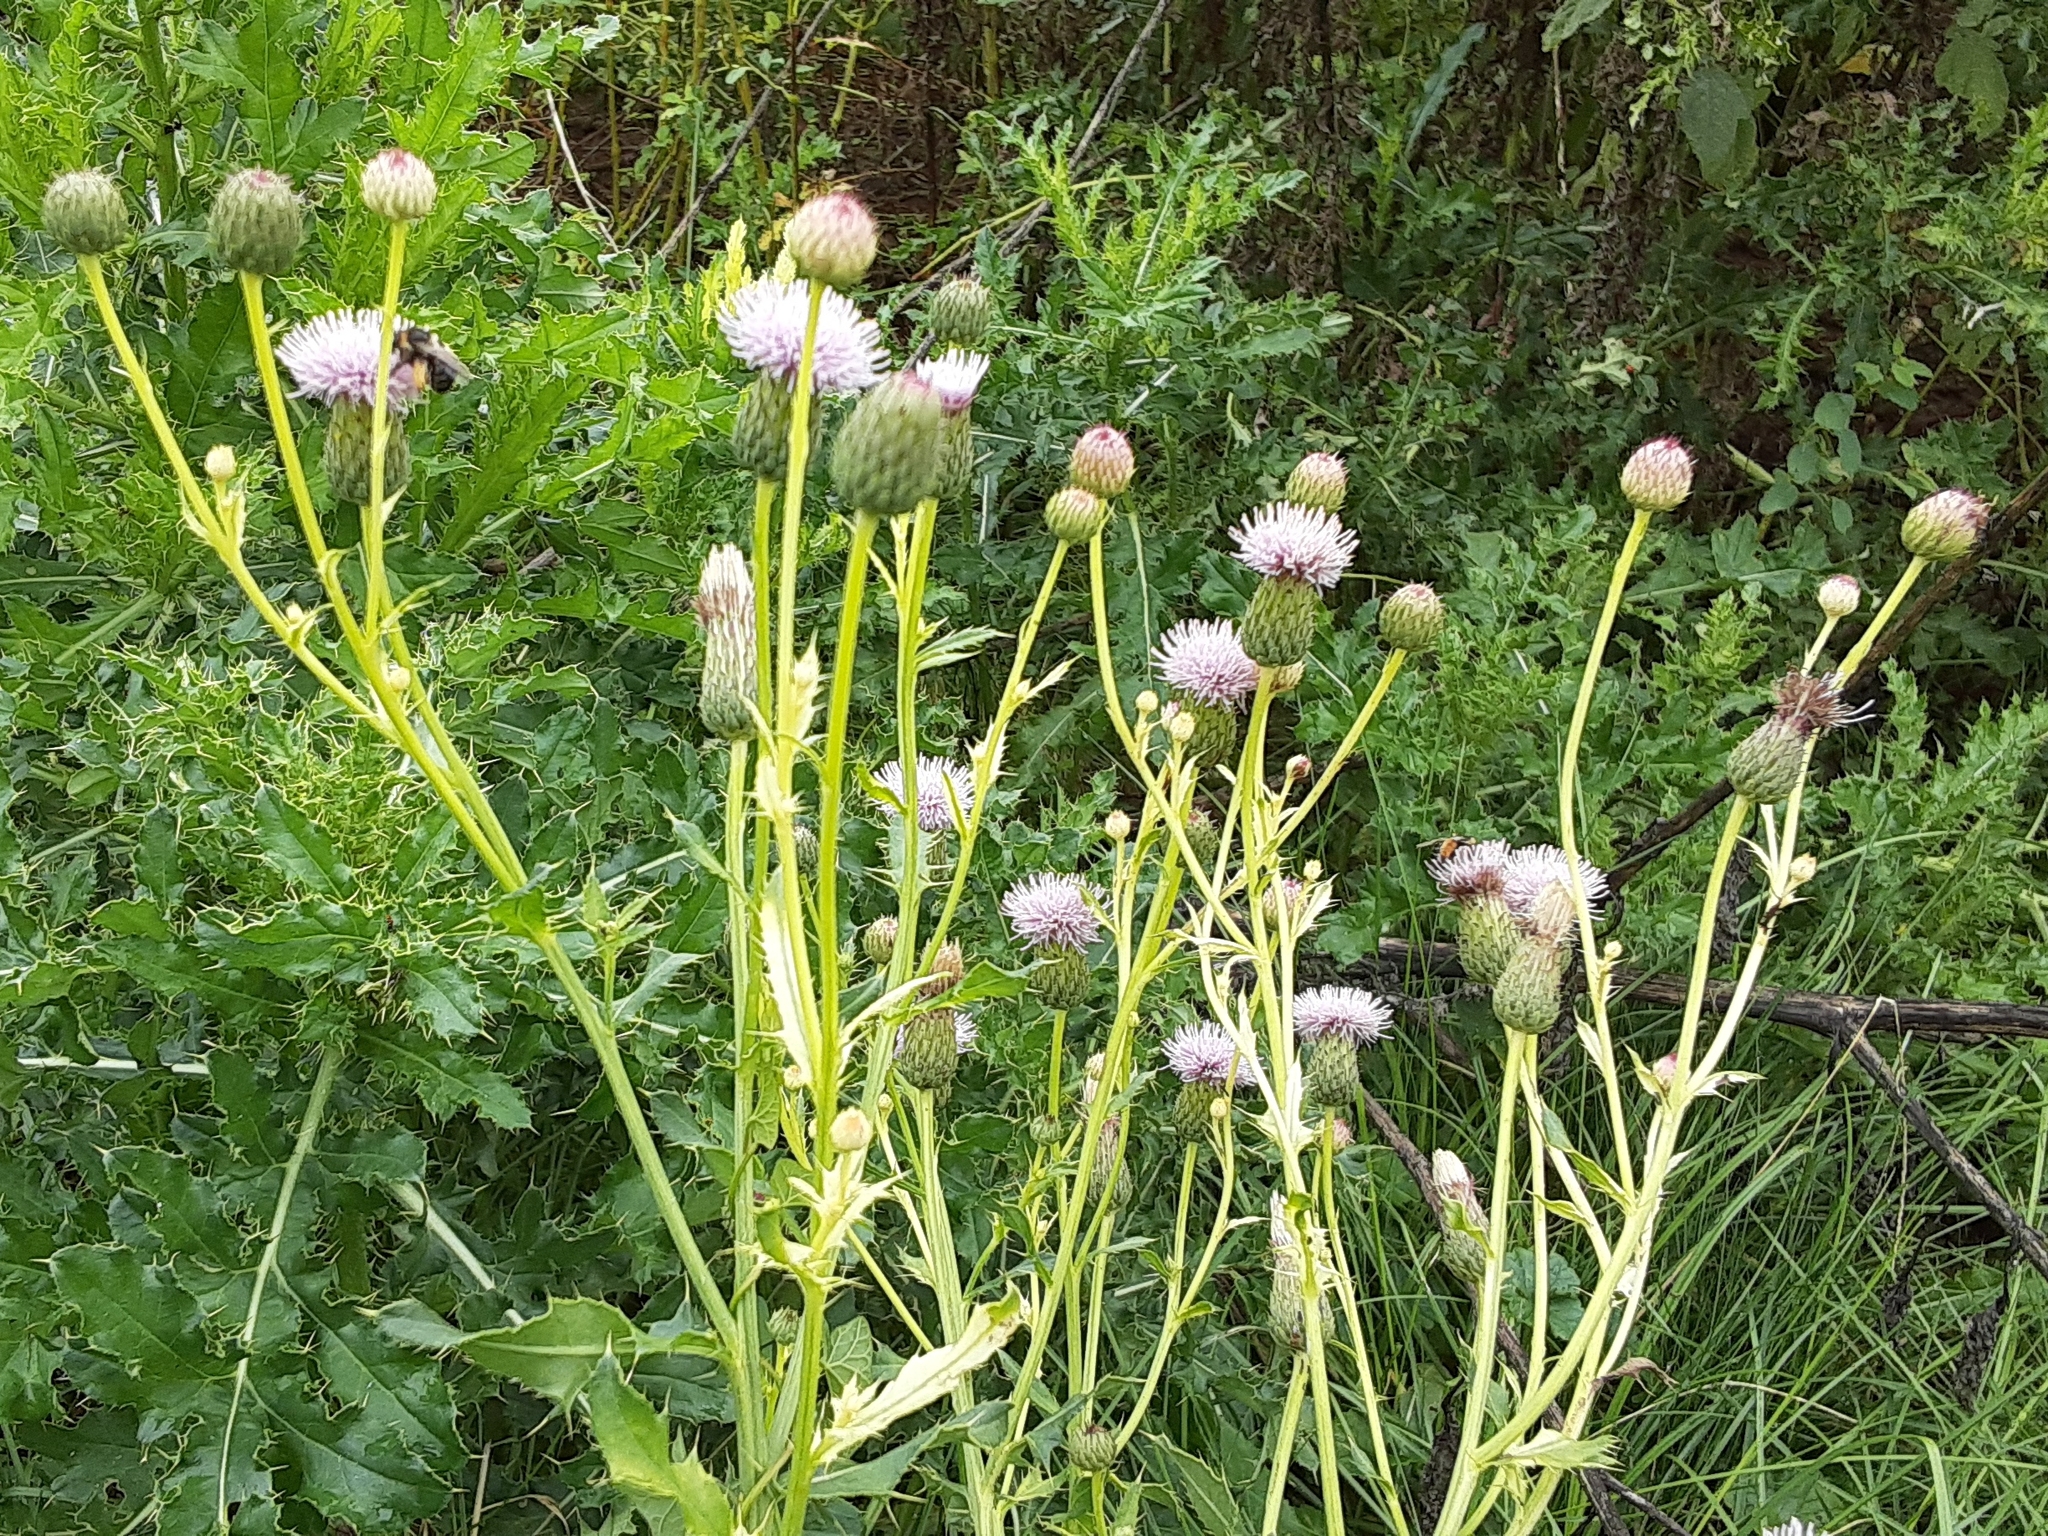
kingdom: Plantae
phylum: Tracheophyta
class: Magnoliopsida
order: Asterales
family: Asteraceae
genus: Cirsium
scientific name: Cirsium arvense
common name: Creeping thistle
